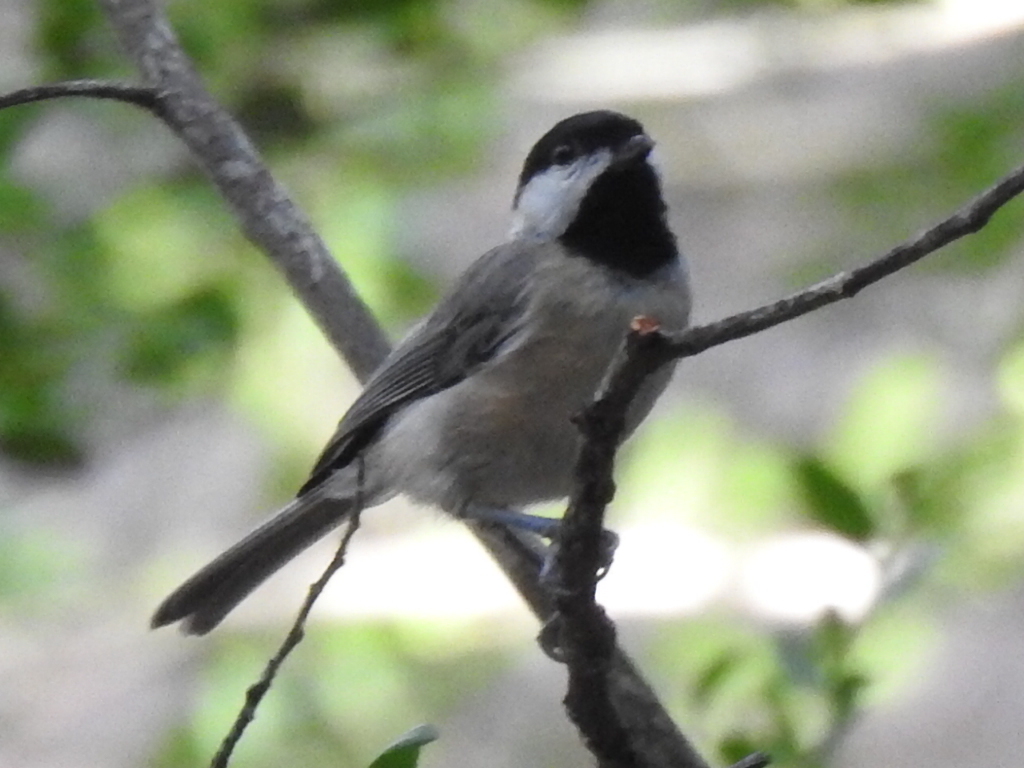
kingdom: Animalia
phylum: Chordata
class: Aves
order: Passeriformes
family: Paridae
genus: Poecile
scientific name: Poecile carolinensis
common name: Carolina chickadee
